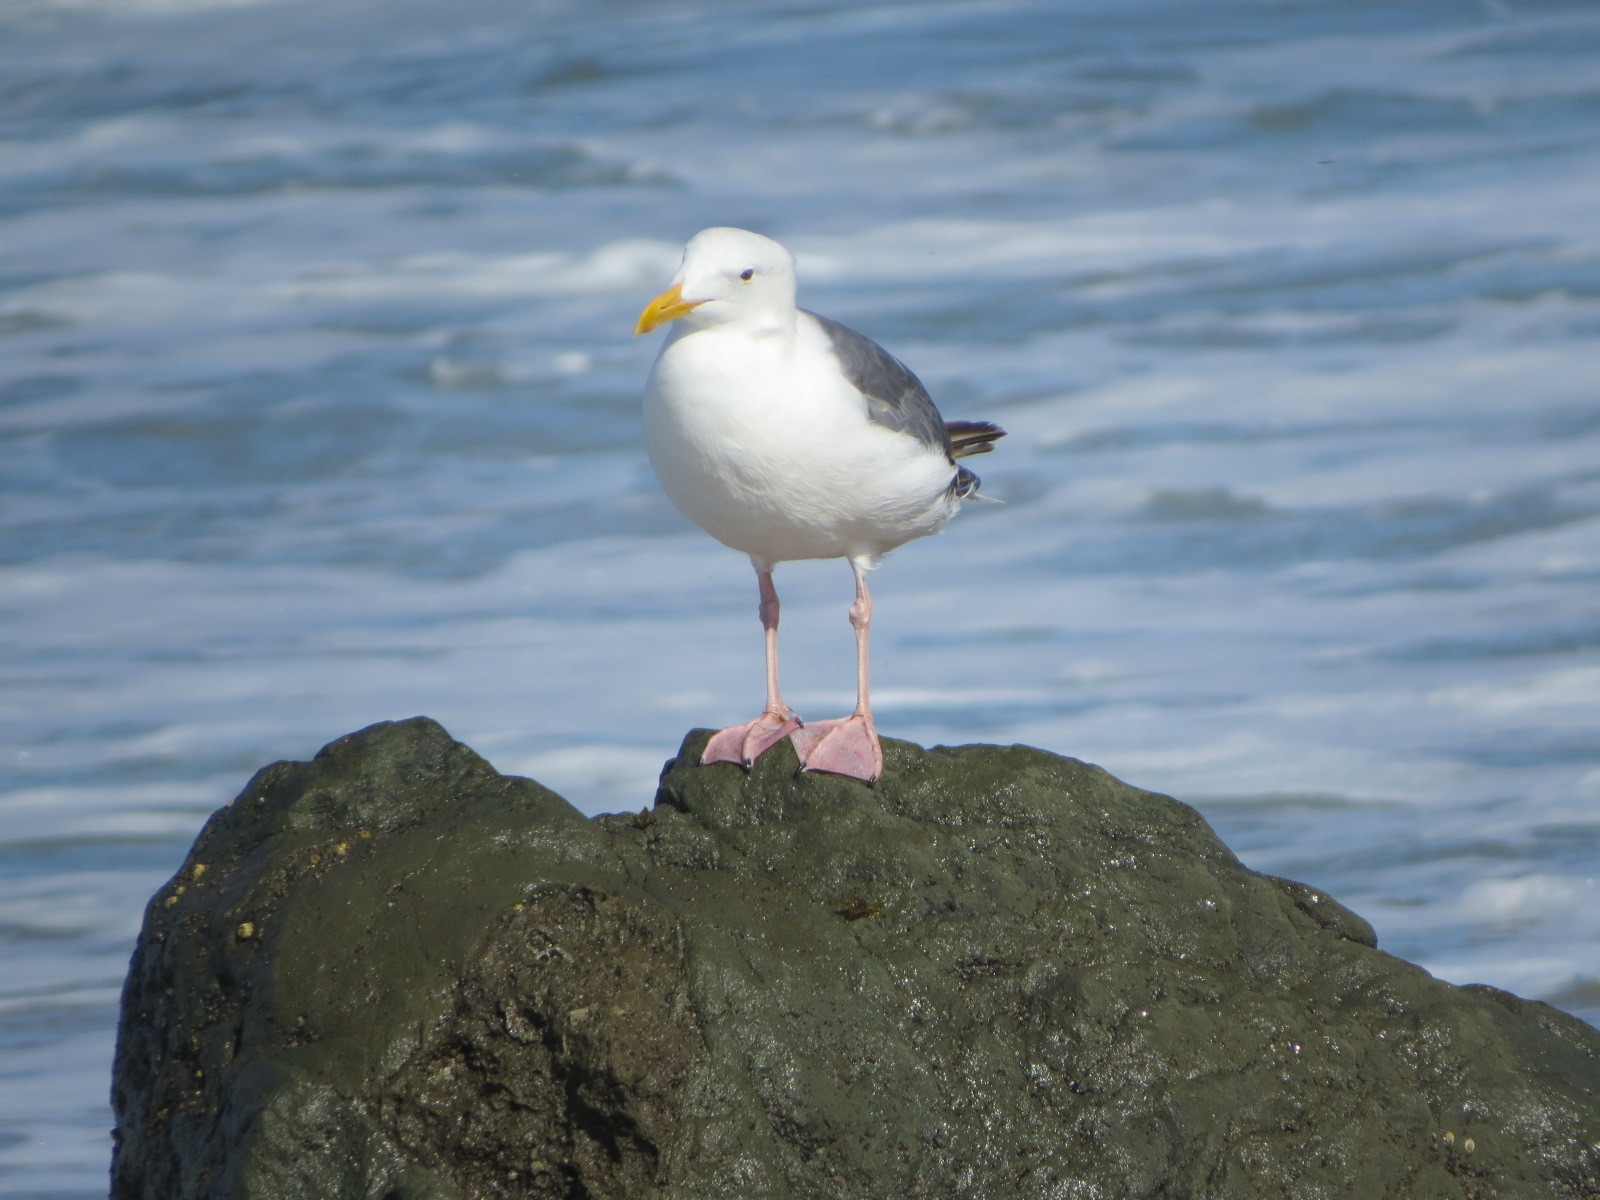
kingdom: Animalia
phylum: Chordata
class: Aves
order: Charadriiformes
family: Laridae
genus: Larus
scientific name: Larus occidentalis
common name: Western gull
